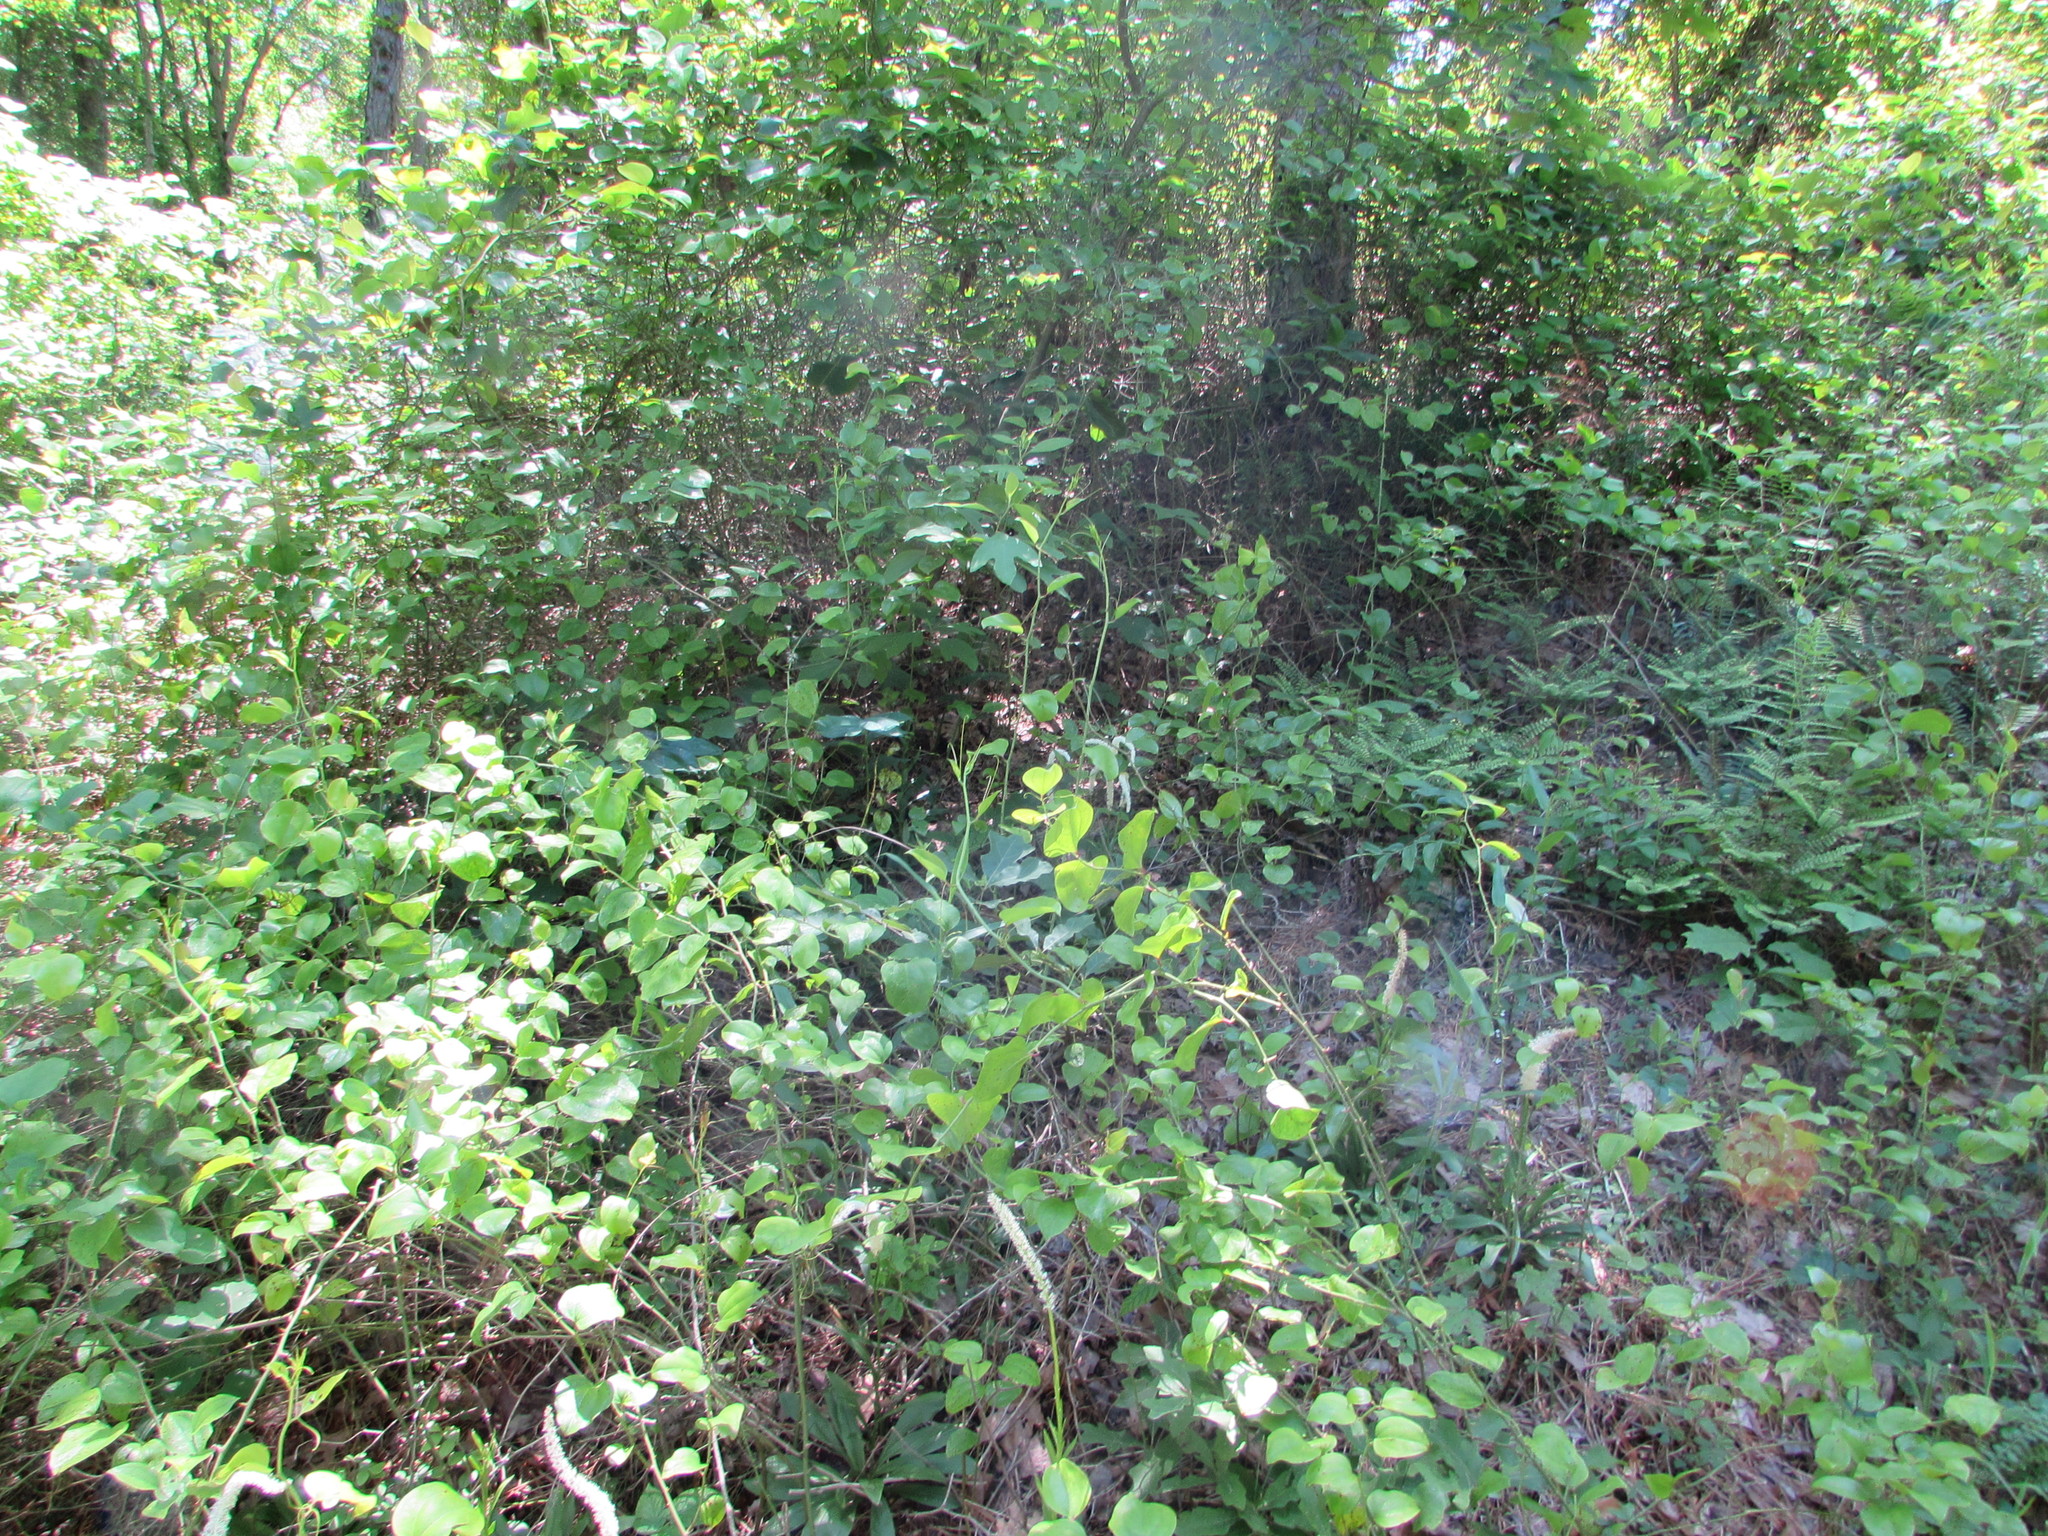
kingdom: Plantae
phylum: Tracheophyta
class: Liliopsida
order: Liliales
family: Melanthiaceae
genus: Chamaelirium
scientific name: Chamaelirium luteum
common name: Fairy-wand
